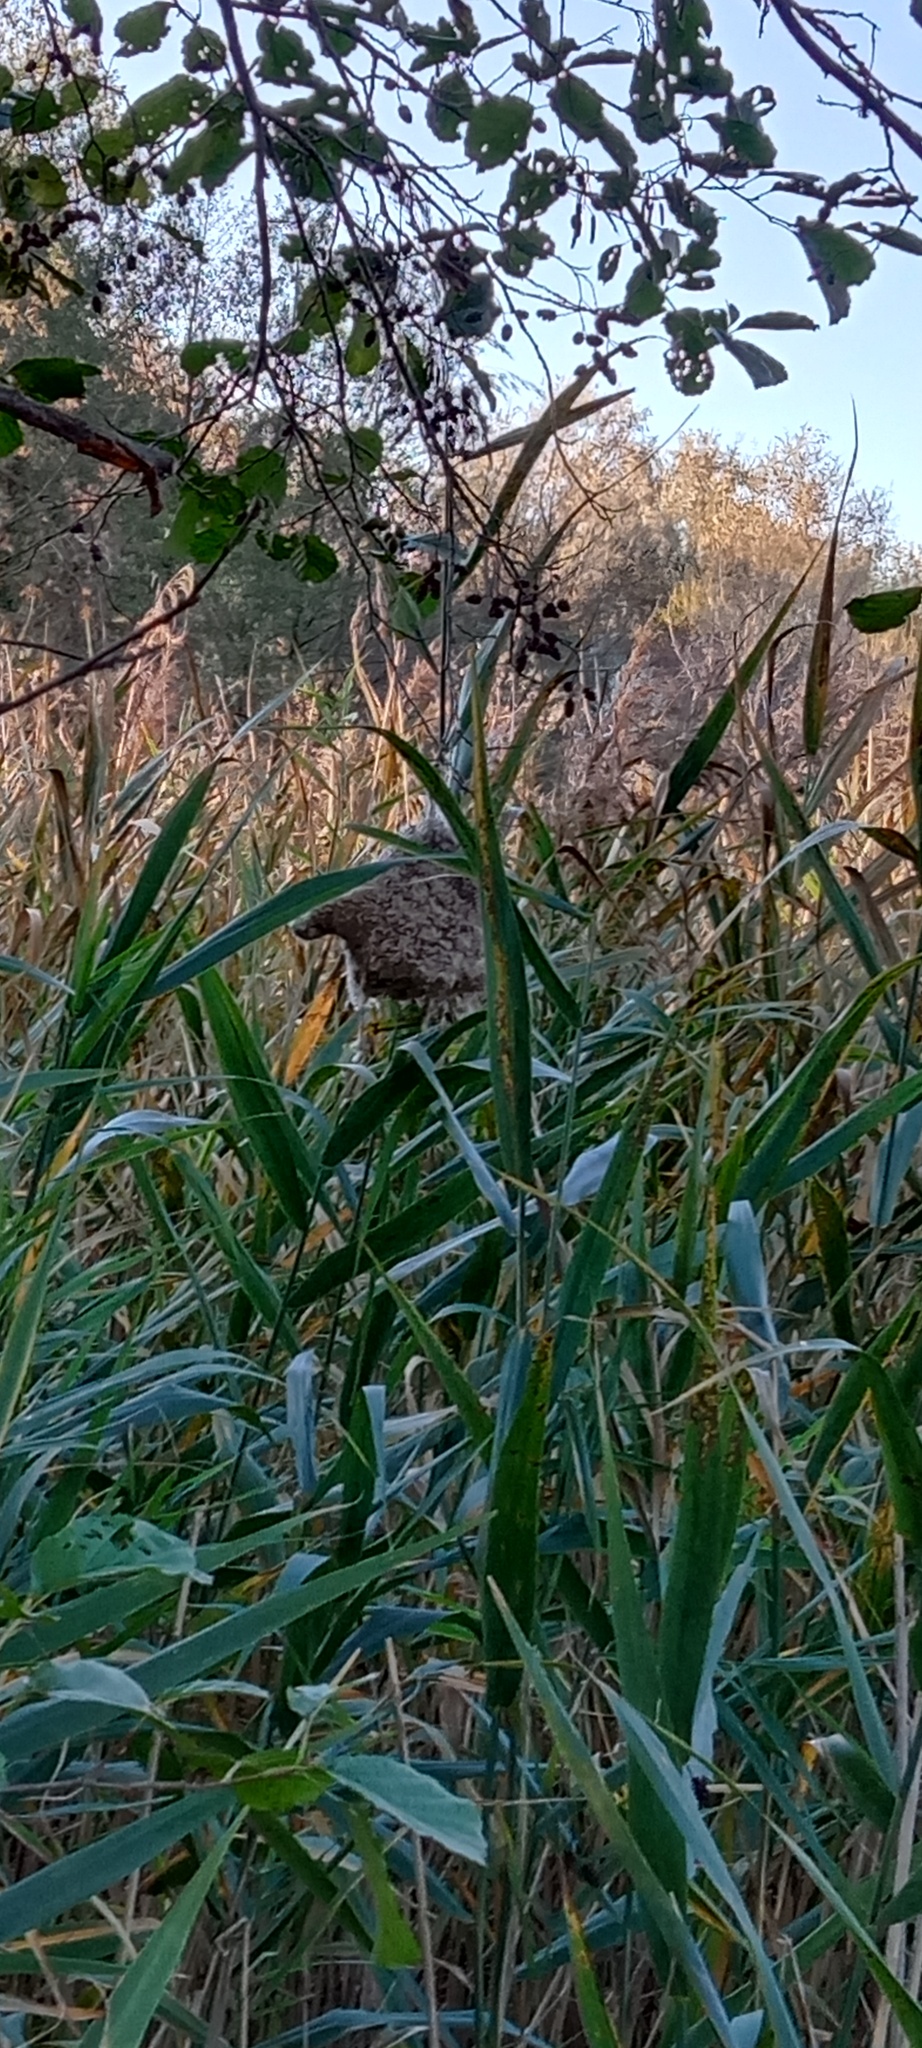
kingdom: Animalia
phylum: Chordata
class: Aves
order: Passeriformes
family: Remizidae
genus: Remiz
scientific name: Remiz pendulinus
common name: Eurasian penduline tit
